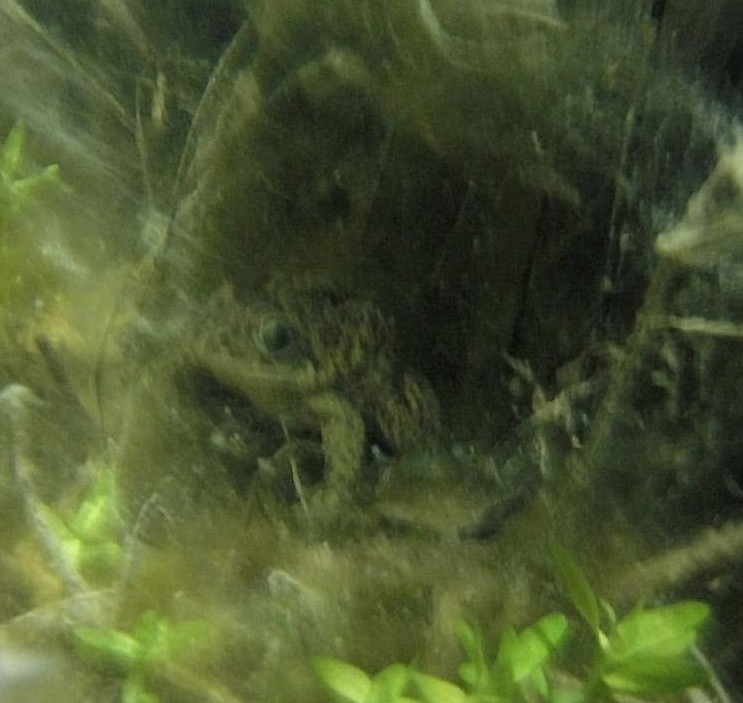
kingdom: Animalia
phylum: Chordata
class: Amphibia
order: Anura
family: Pelobatidae
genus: Pelobates
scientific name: Pelobates cultripes
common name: Western spadefoot
